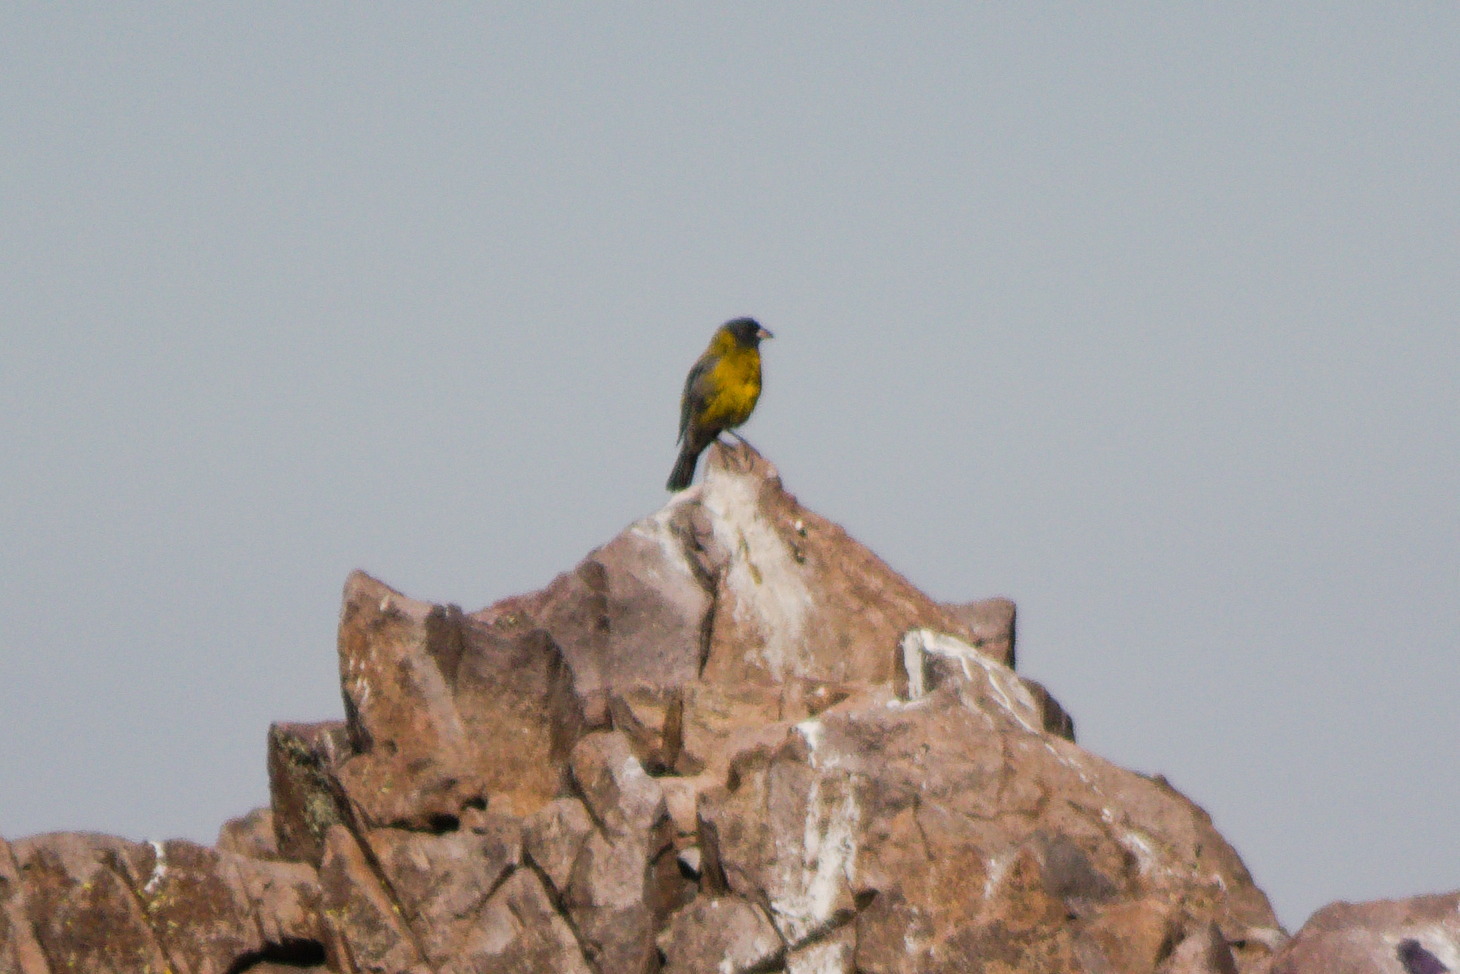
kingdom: Animalia
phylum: Chordata
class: Aves
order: Passeriformes
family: Thraupidae
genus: Phrygilus
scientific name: Phrygilus gayi
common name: Grey-hooded sierra finch
